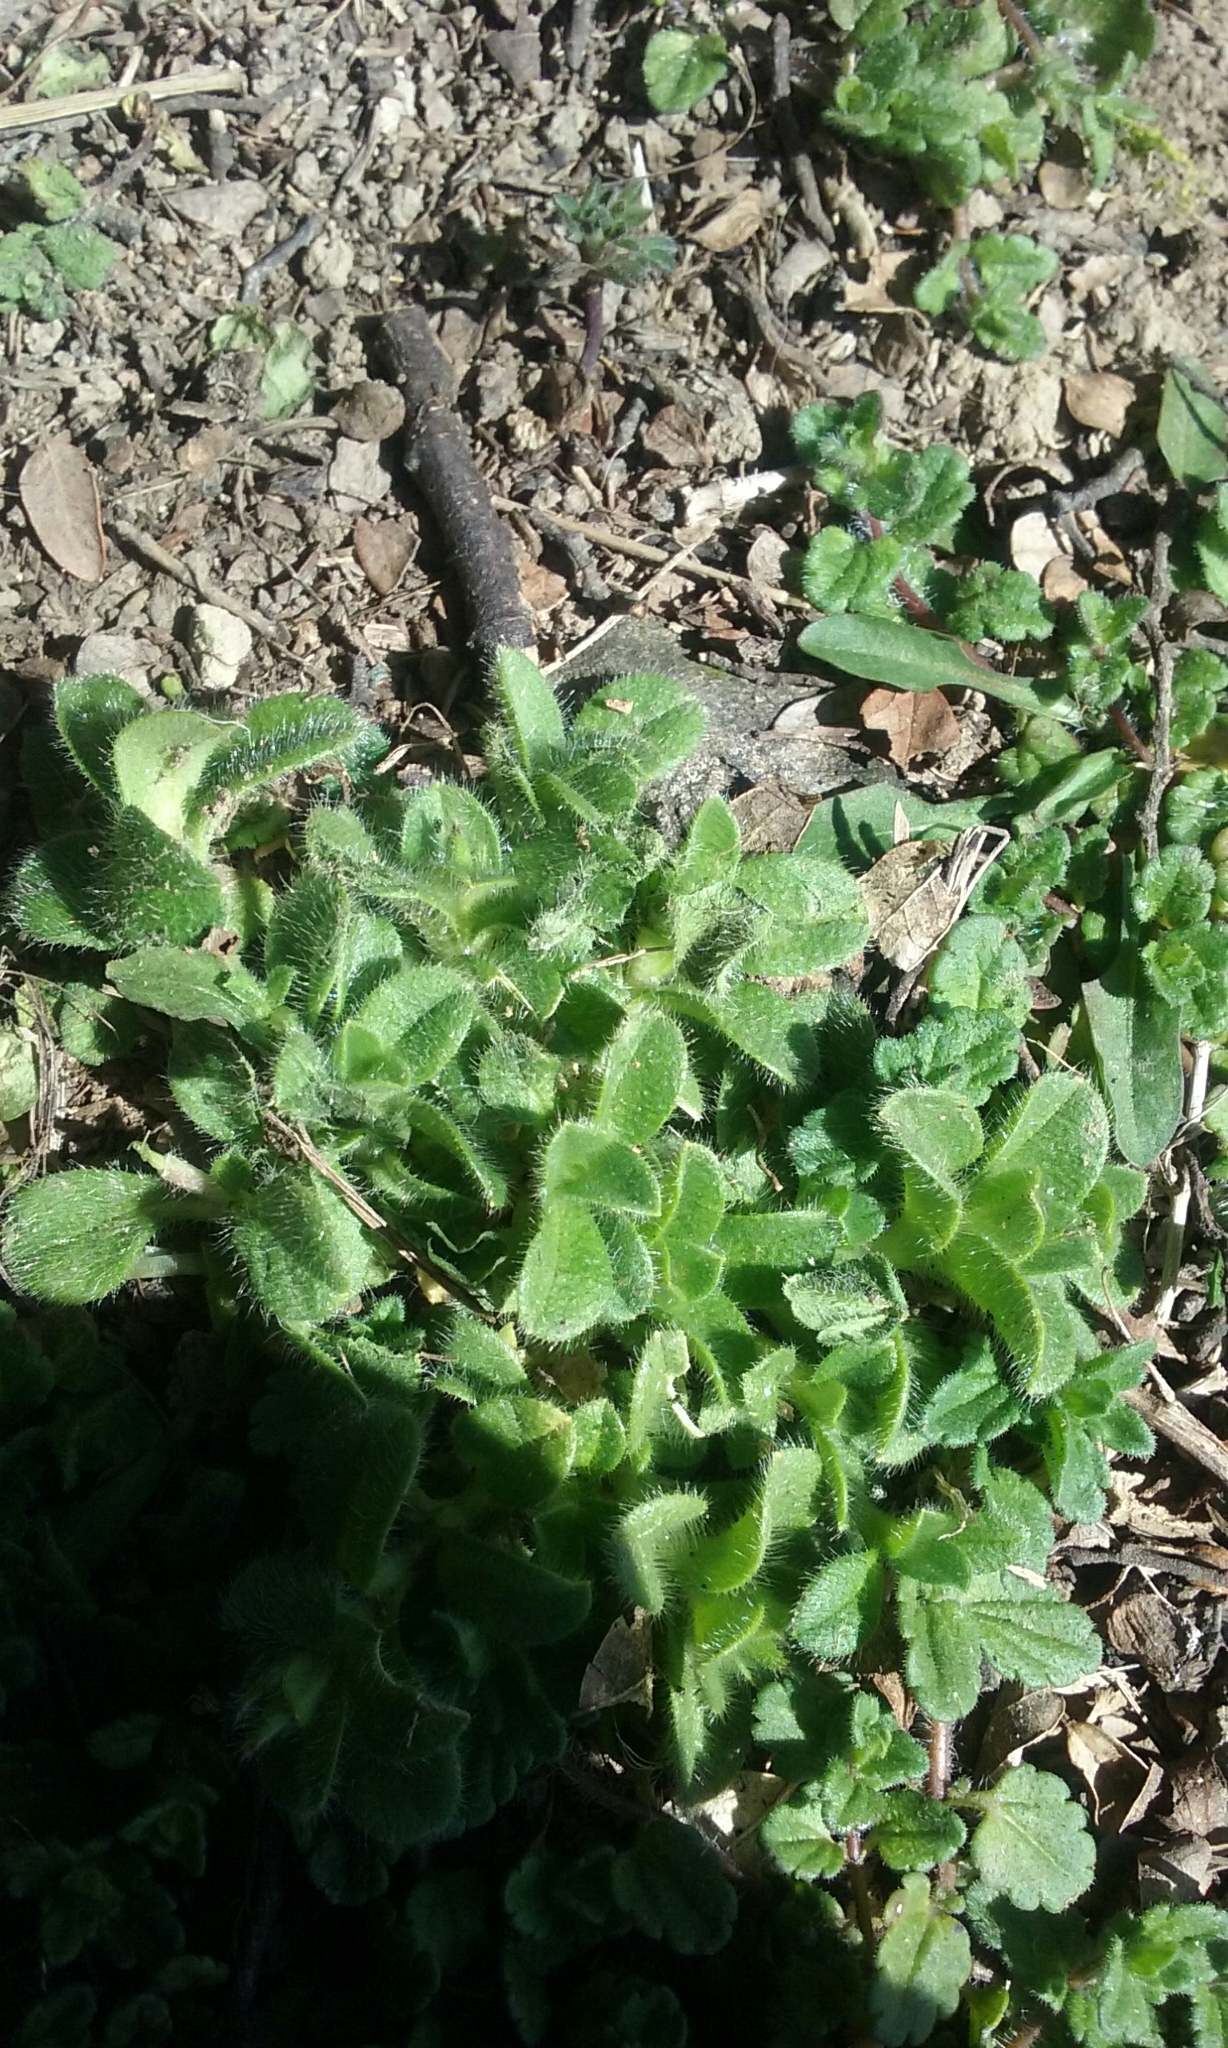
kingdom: Plantae
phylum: Tracheophyta
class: Magnoliopsida
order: Caryophyllales
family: Caryophyllaceae
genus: Cerastium
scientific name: Cerastium glomeratum
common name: Sticky chickweed
